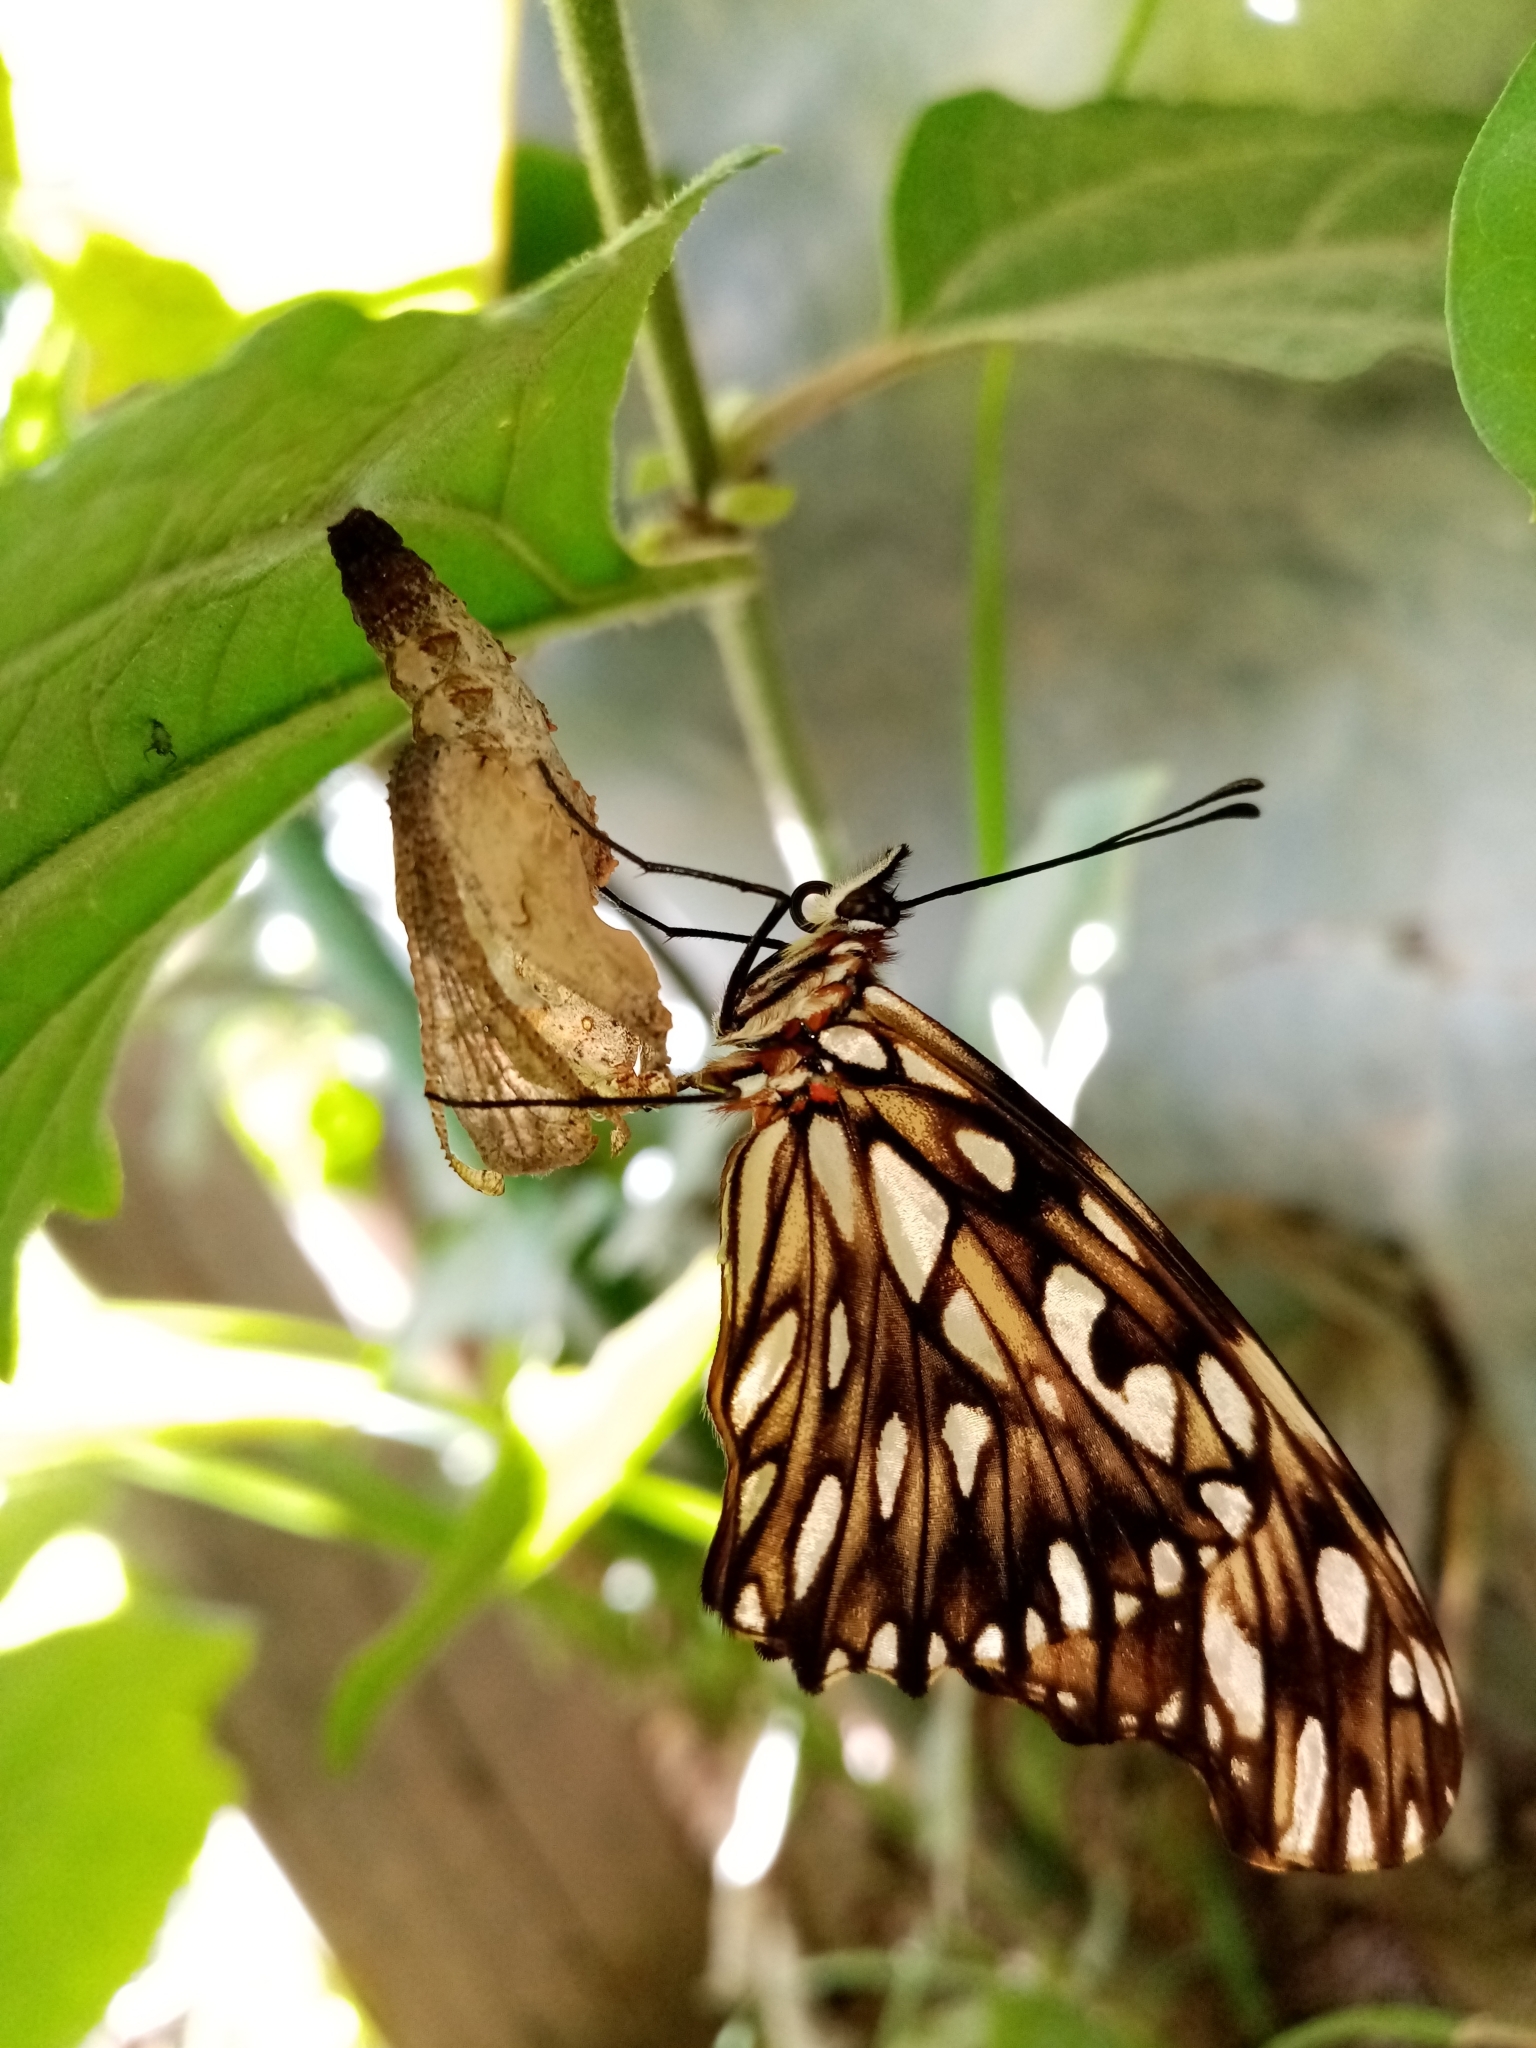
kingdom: Animalia
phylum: Arthropoda
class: Insecta
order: Lepidoptera
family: Nymphalidae
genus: Dione
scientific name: Dione juno
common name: Juno silverspot
